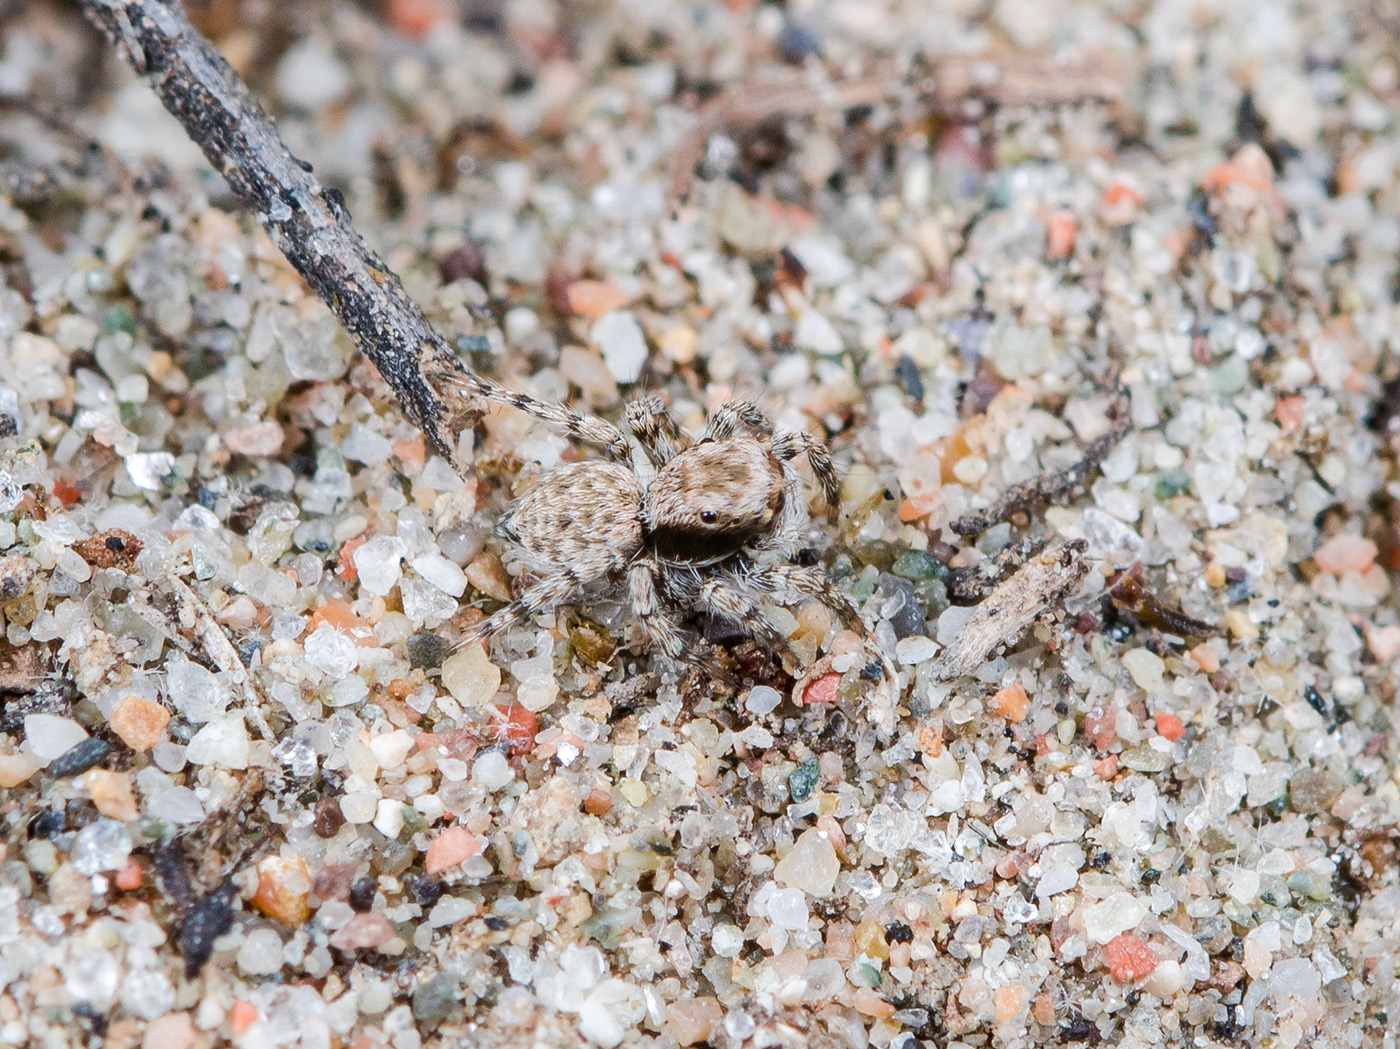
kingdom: Animalia
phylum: Arthropoda
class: Arachnida
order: Araneae
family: Salticidae
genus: Aelurillus
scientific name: Aelurillus andreevae
